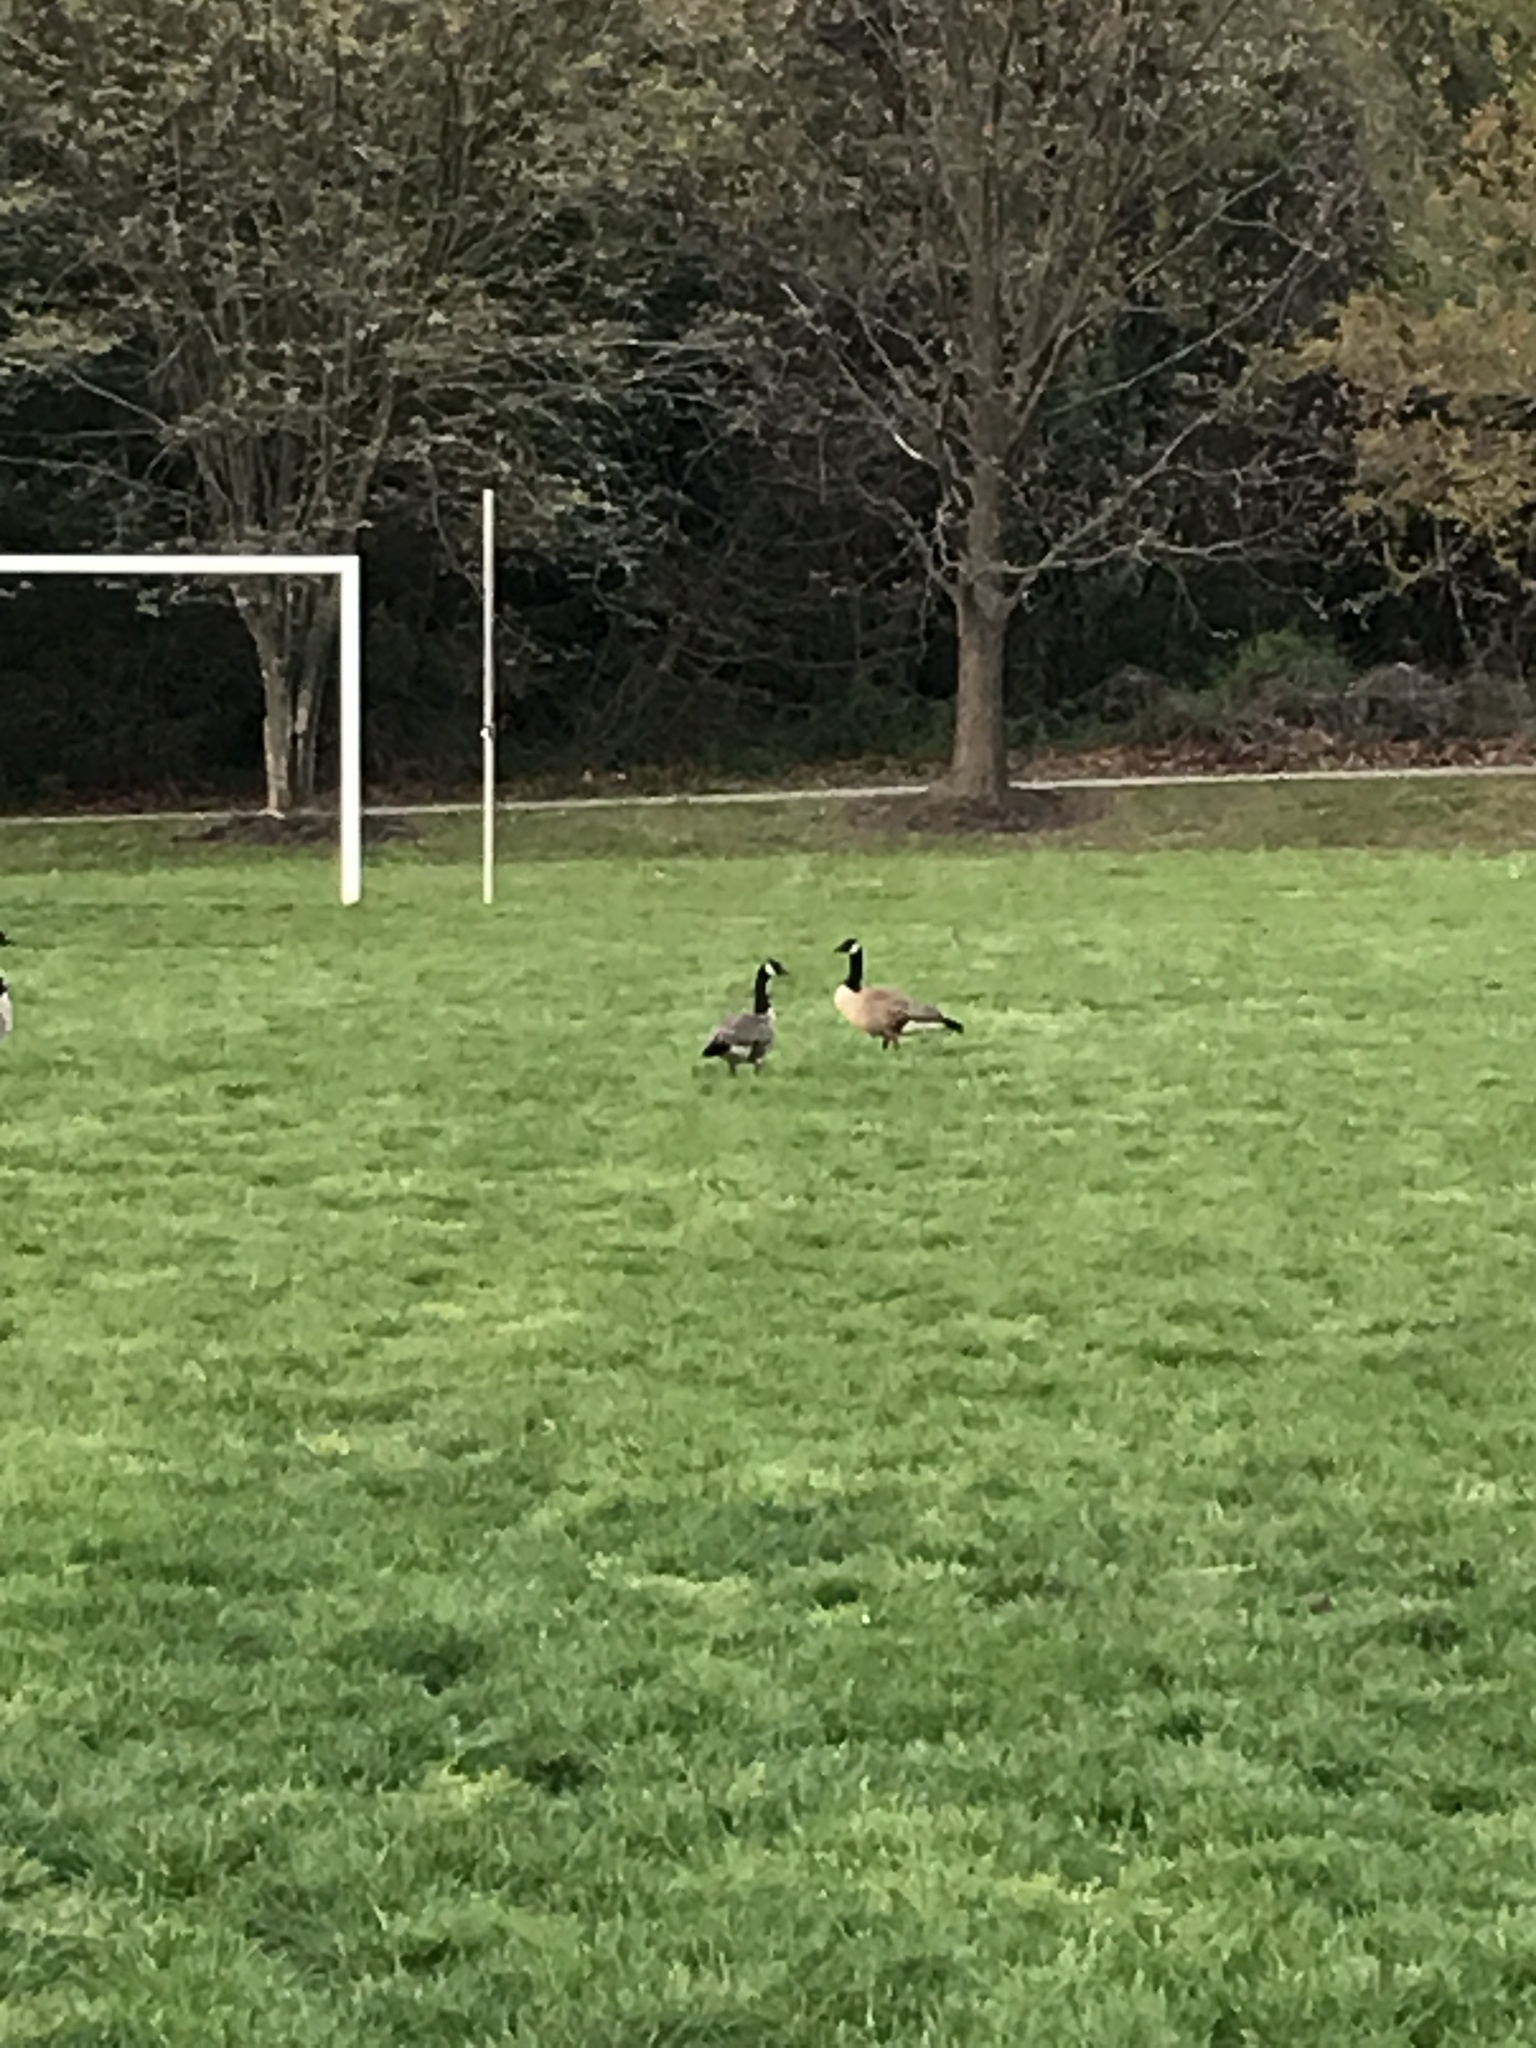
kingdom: Animalia
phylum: Chordata
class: Aves
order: Anseriformes
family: Anatidae
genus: Branta
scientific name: Branta canadensis
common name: Canada goose
